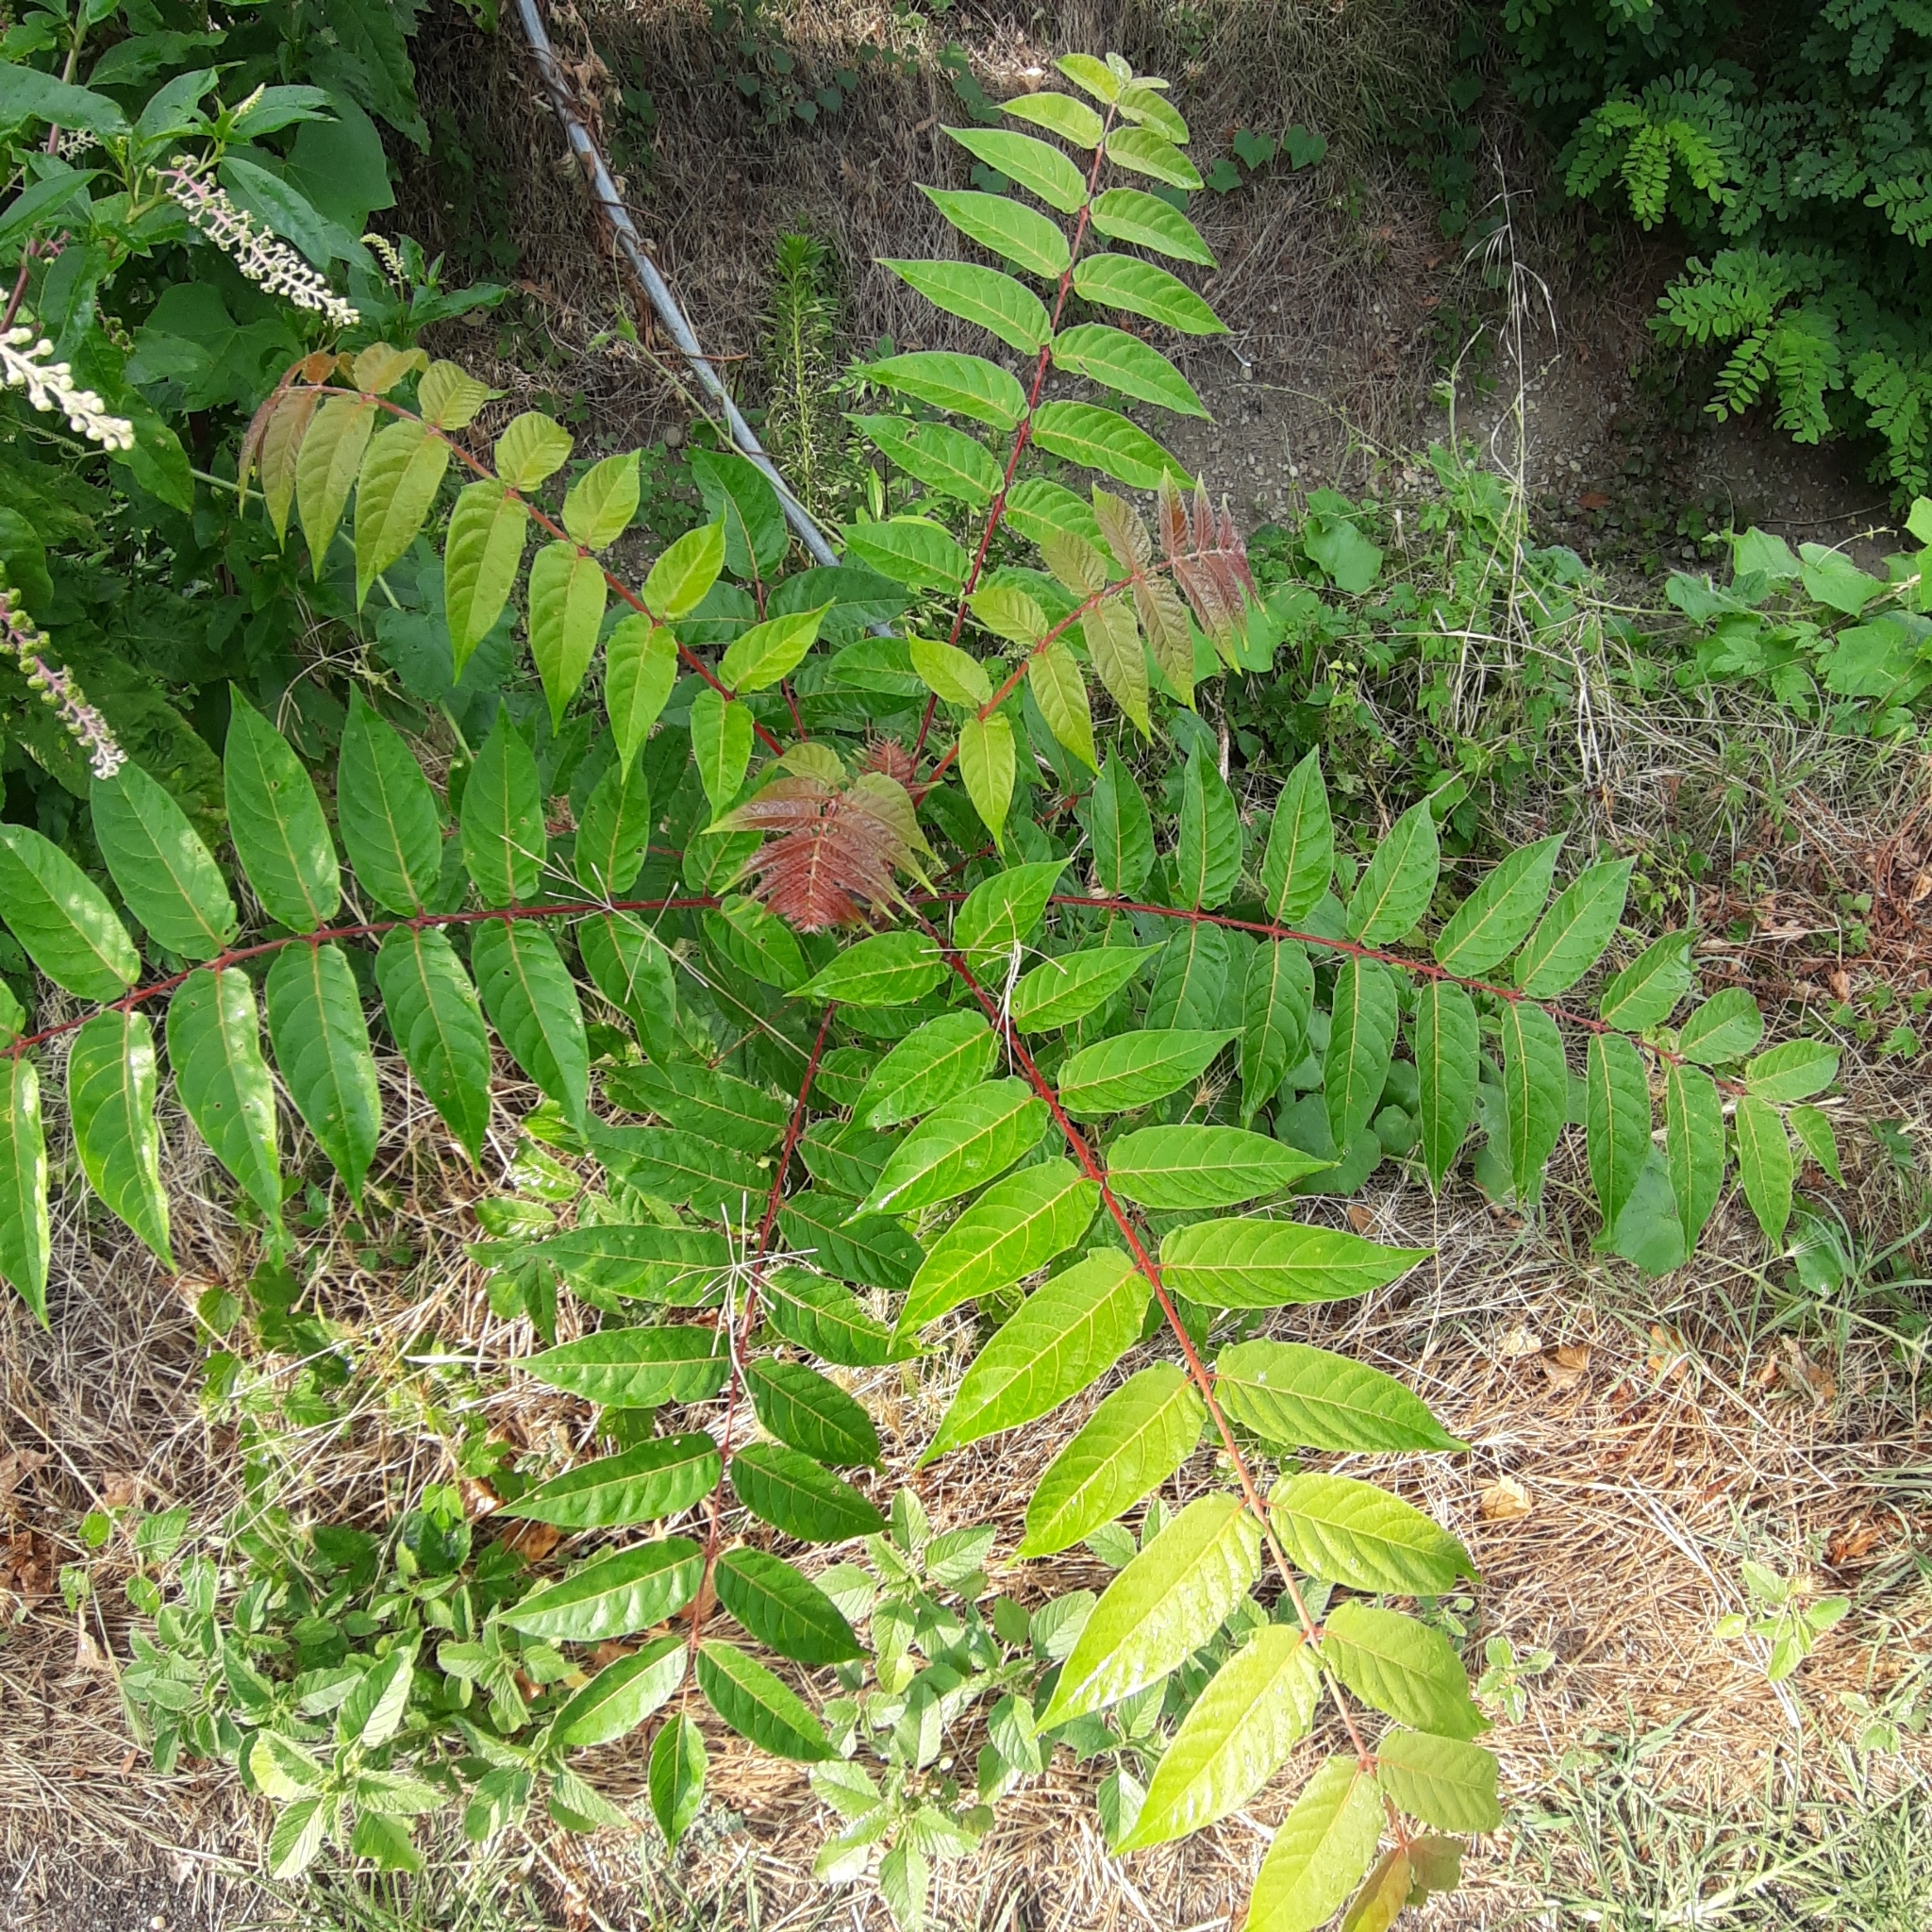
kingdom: Plantae
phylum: Tracheophyta
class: Magnoliopsida
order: Sapindales
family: Simaroubaceae
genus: Ailanthus
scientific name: Ailanthus altissima
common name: Tree-of-heaven
